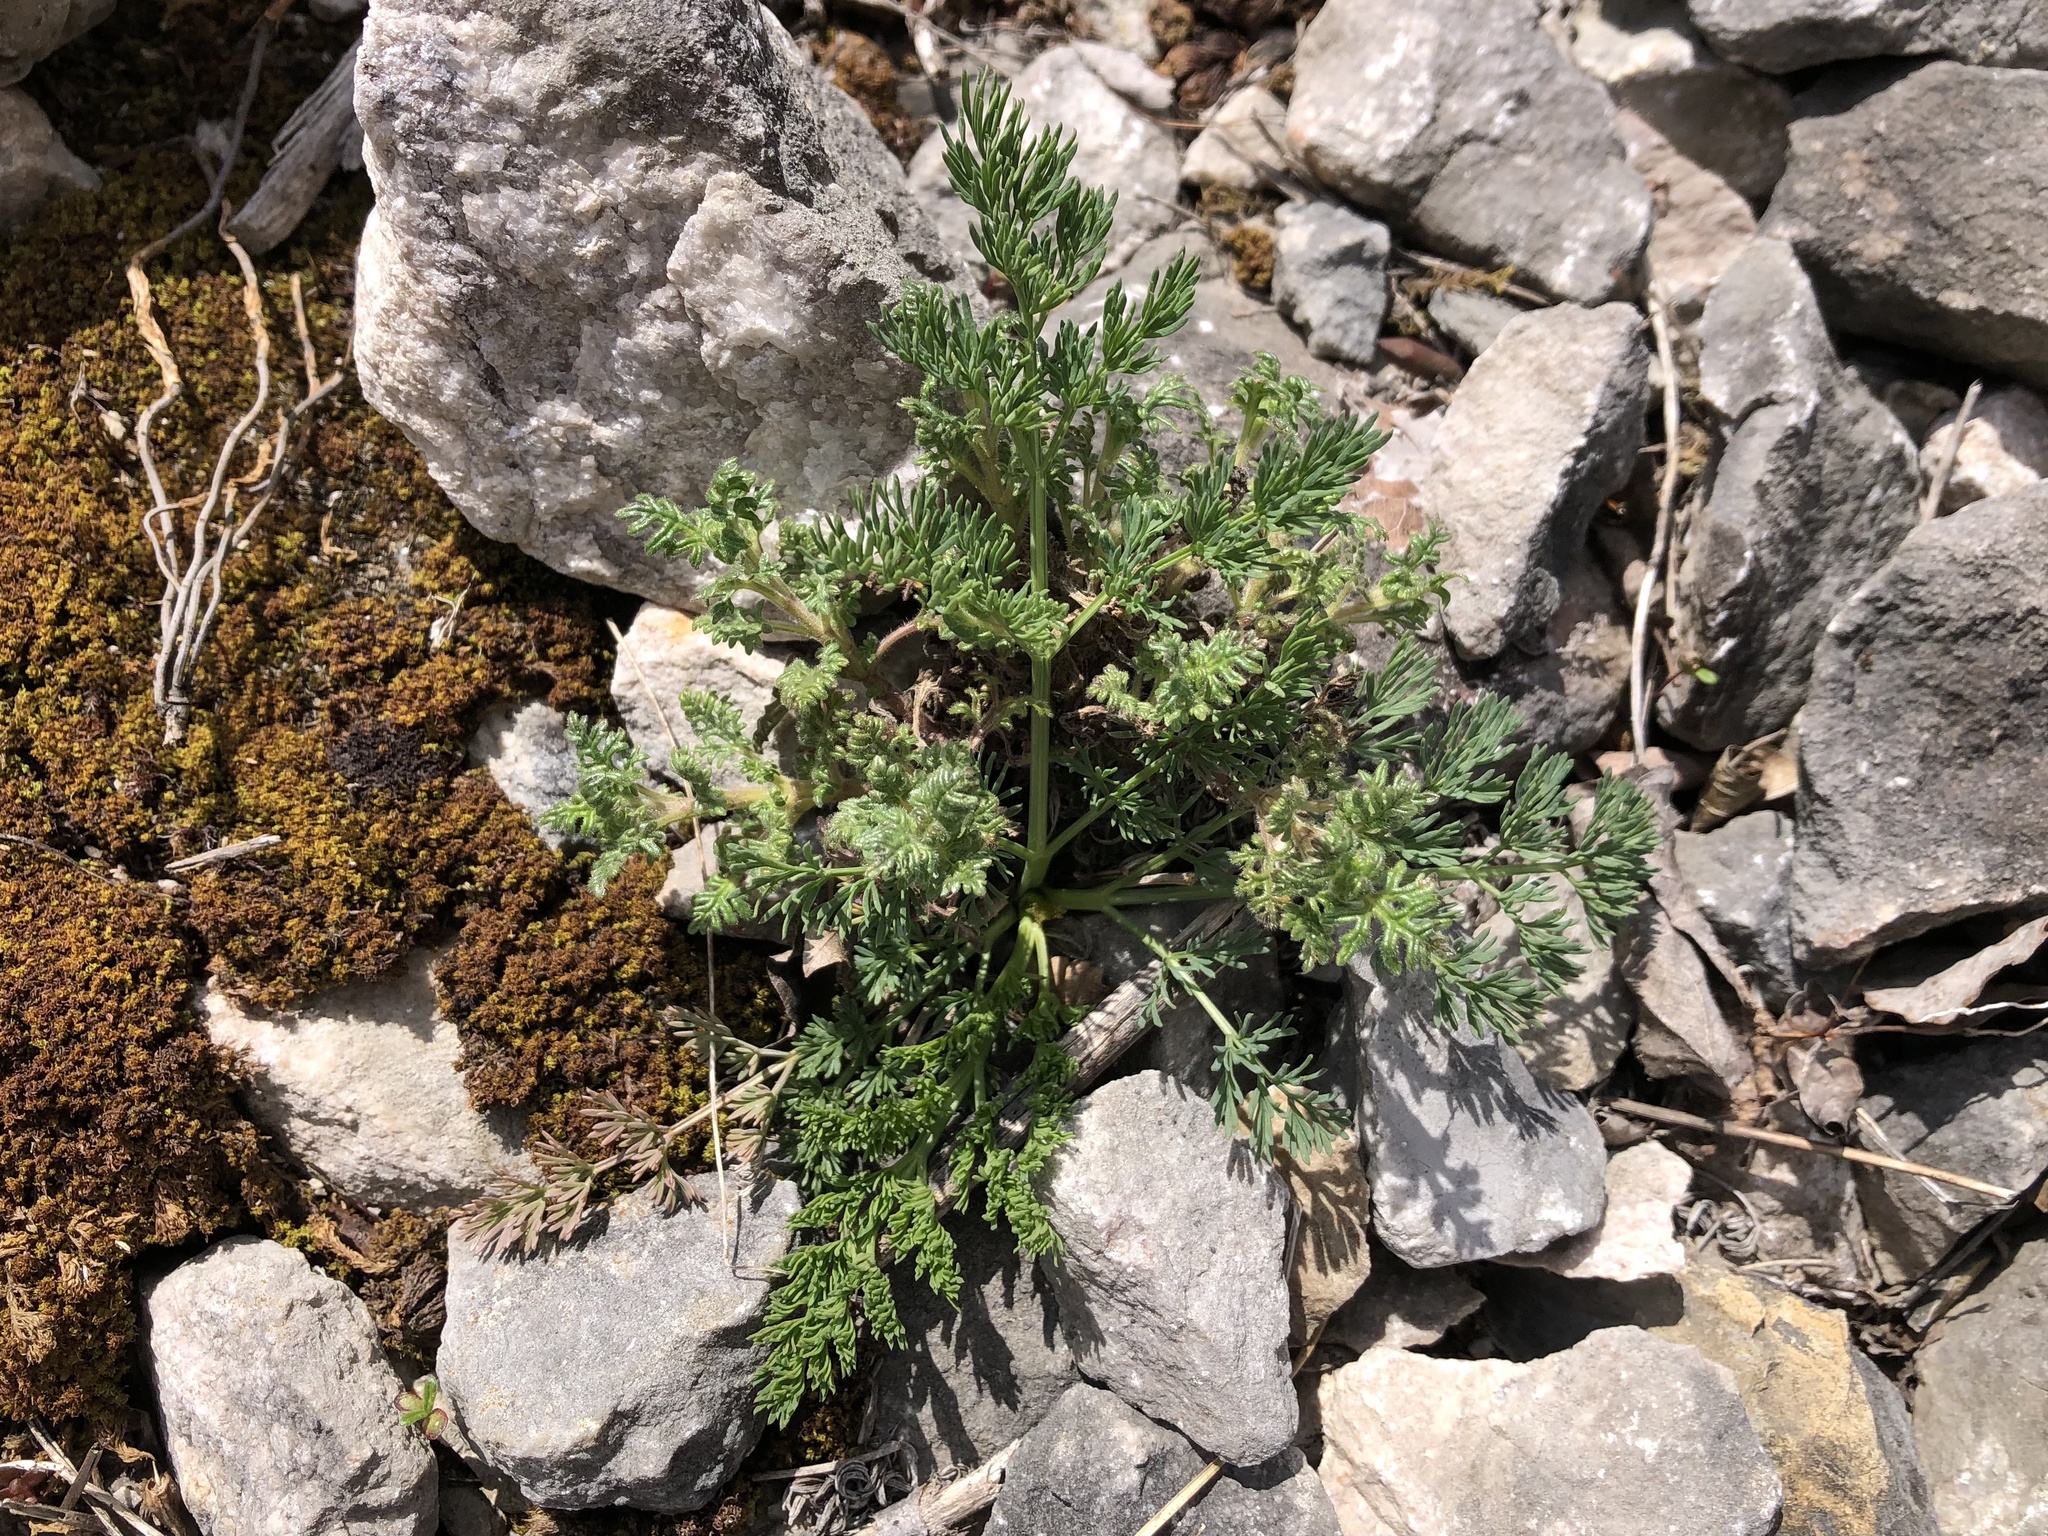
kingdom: Plantae
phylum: Tracheophyta
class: Magnoliopsida
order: Apiales
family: Apiaceae
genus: Hippomarathrum
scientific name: Hippomarathrum
